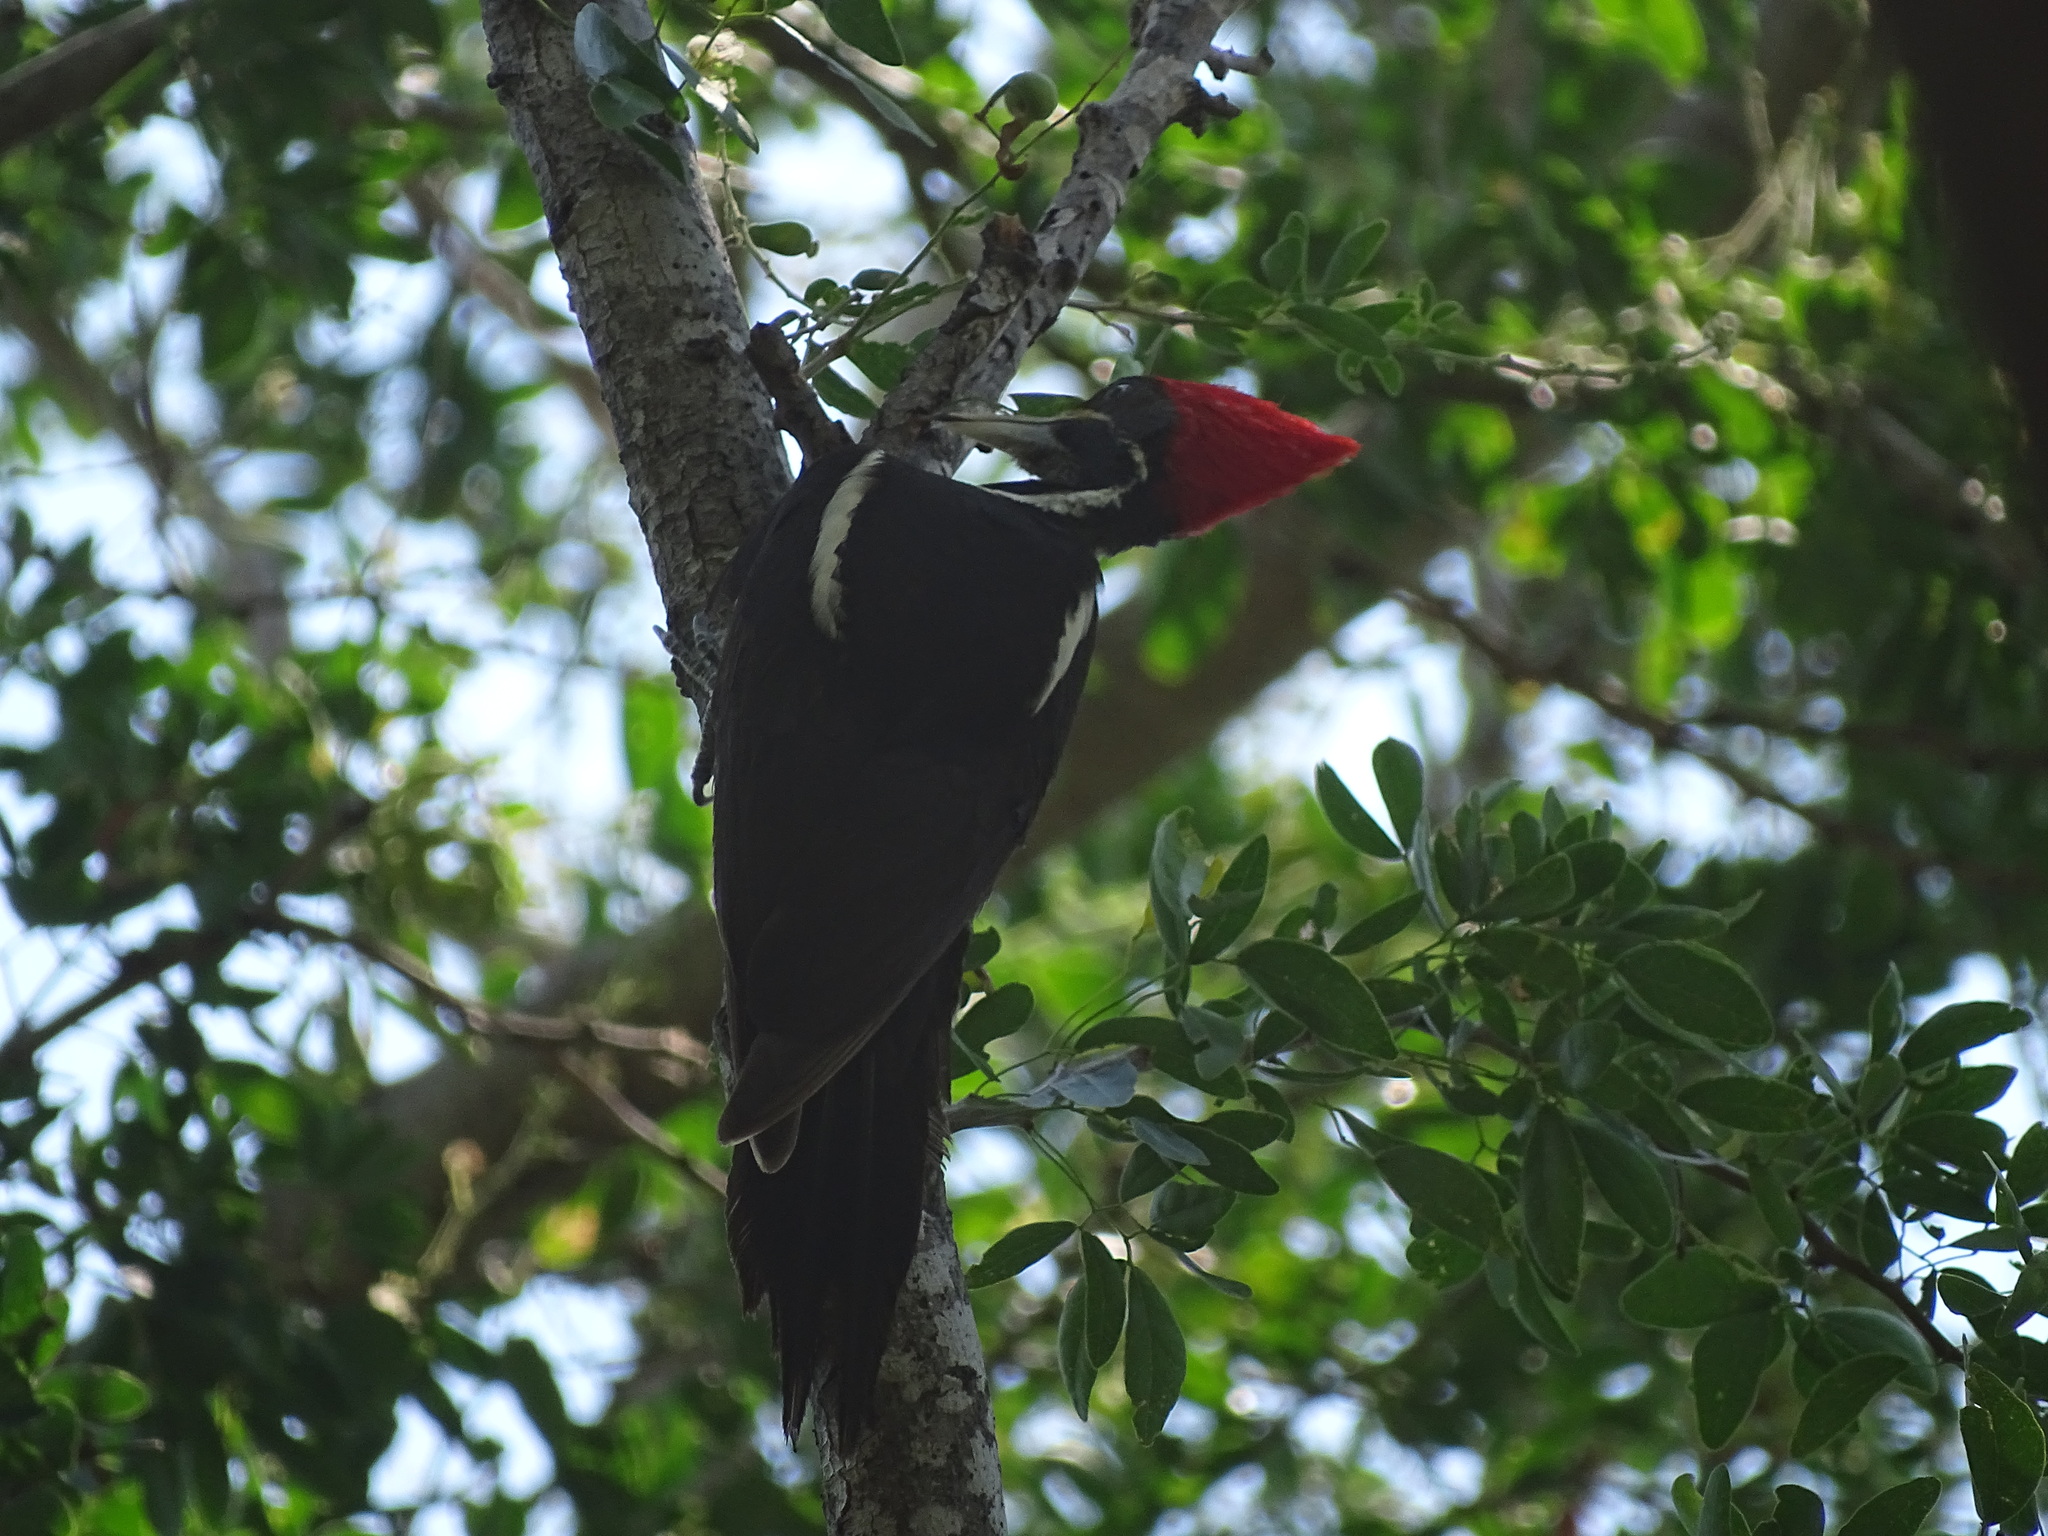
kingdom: Animalia
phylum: Chordata
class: Aves
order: Piciformes
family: Picidae
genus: Dryocopus
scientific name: Dryocopus lineatus
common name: Lineated woodpecker
